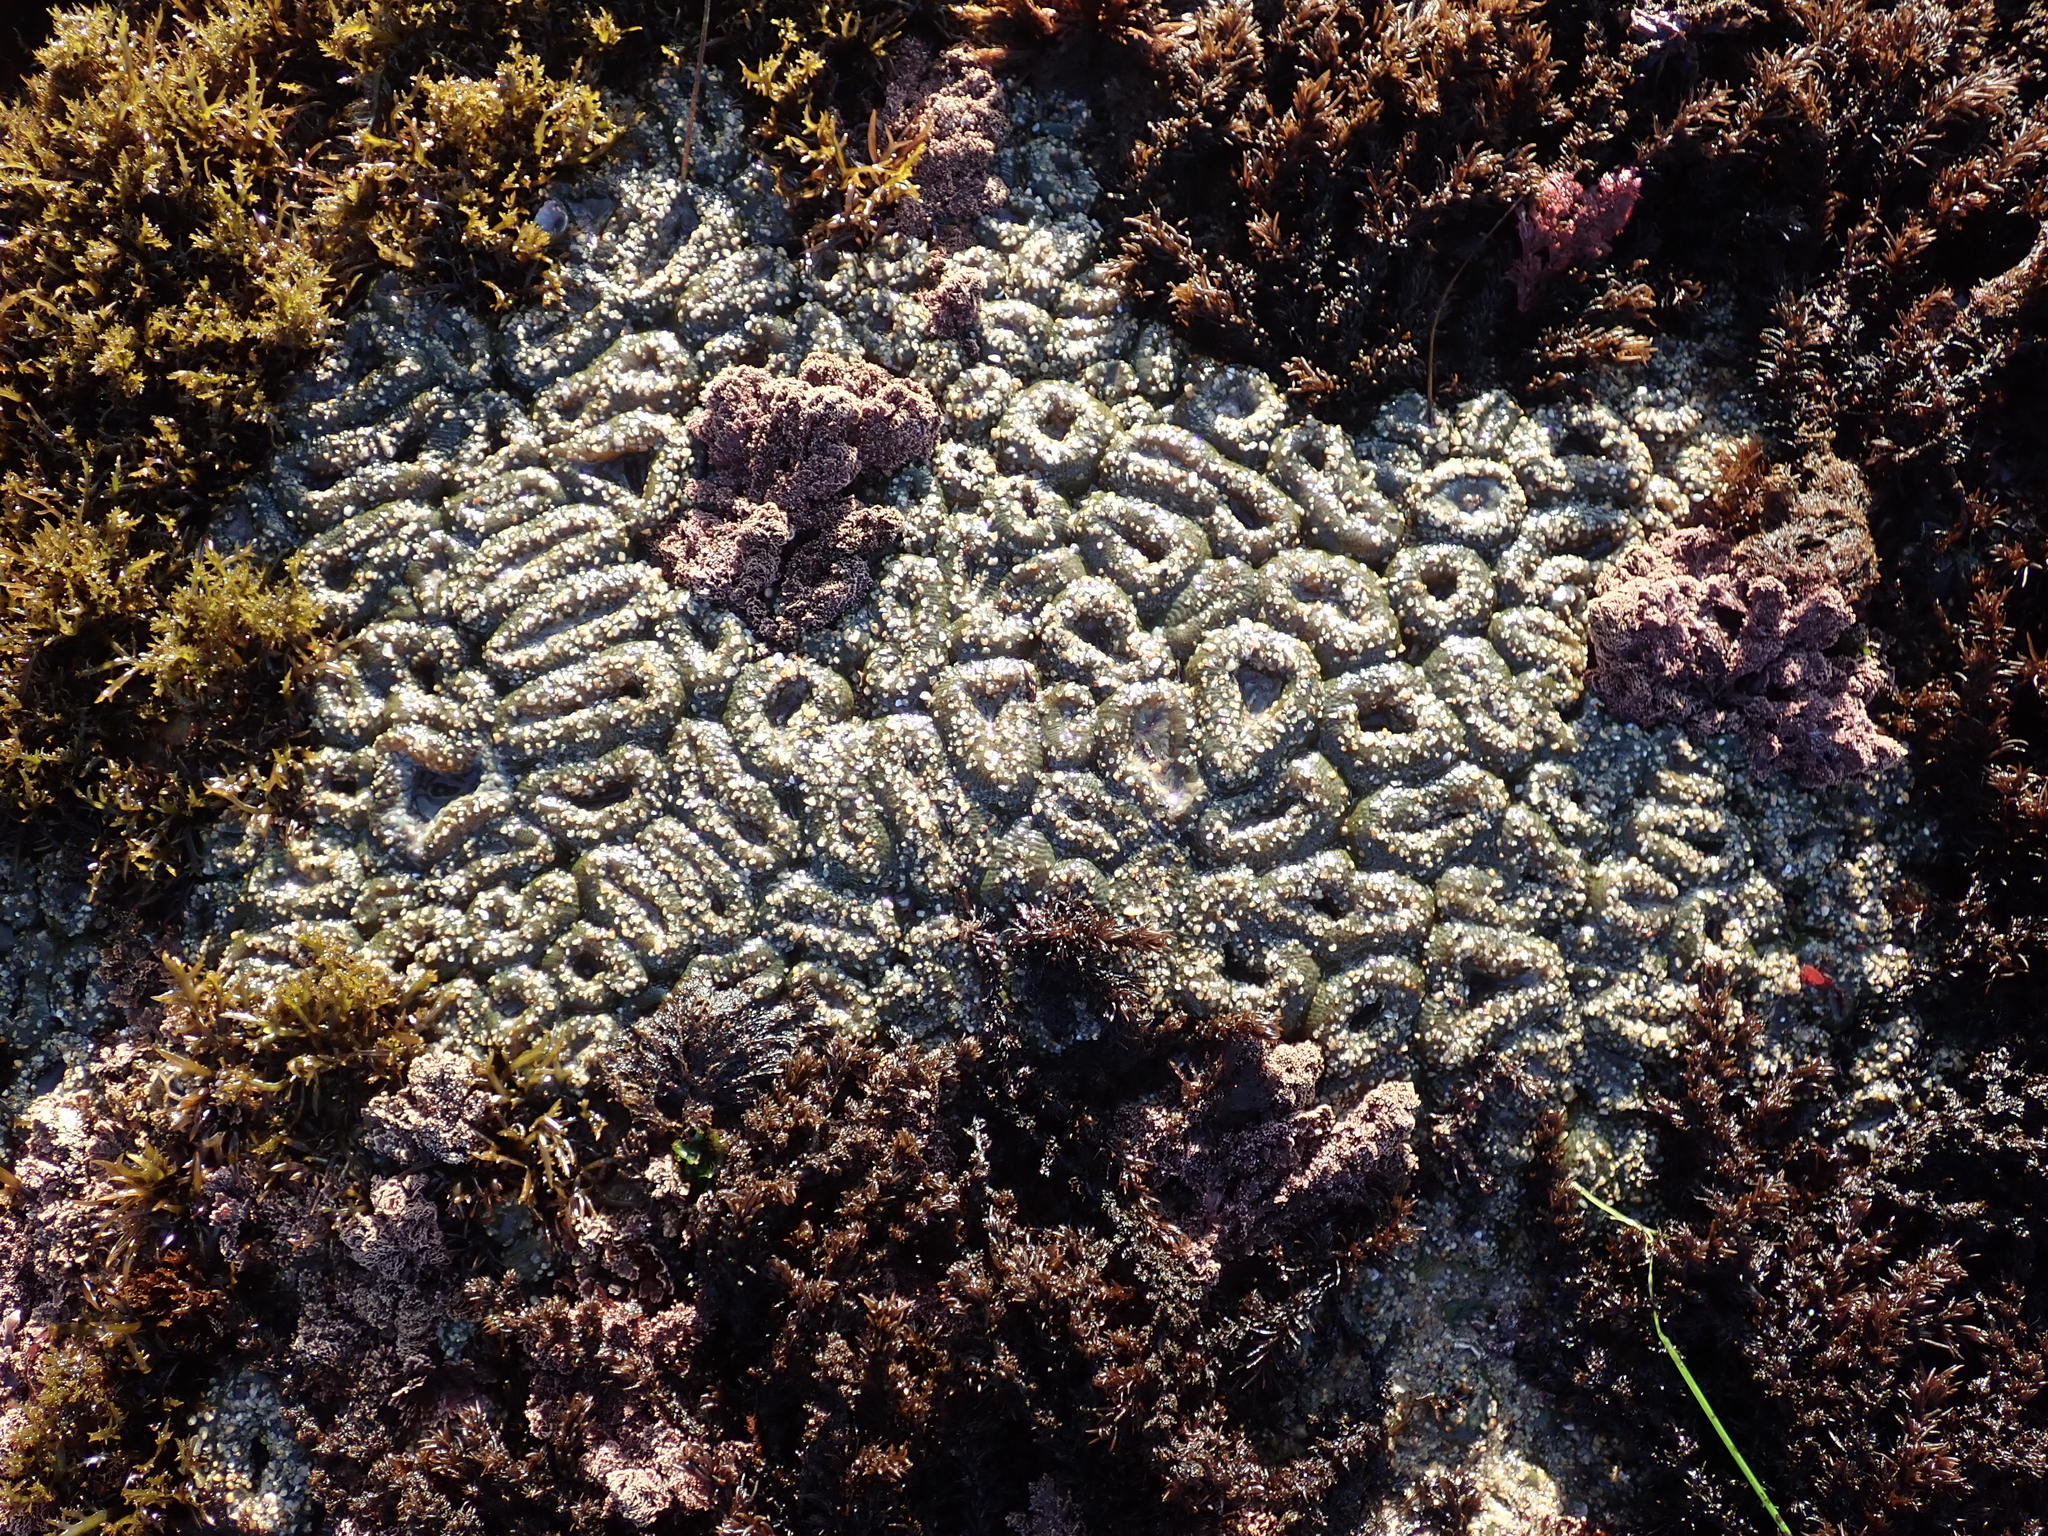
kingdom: Animalia
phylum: Cnidaria
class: Anthozoa
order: Actiniaria
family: Actiniidae
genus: Anthopleura
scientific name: Anthopleura elegantissima
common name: Clonal anemone
